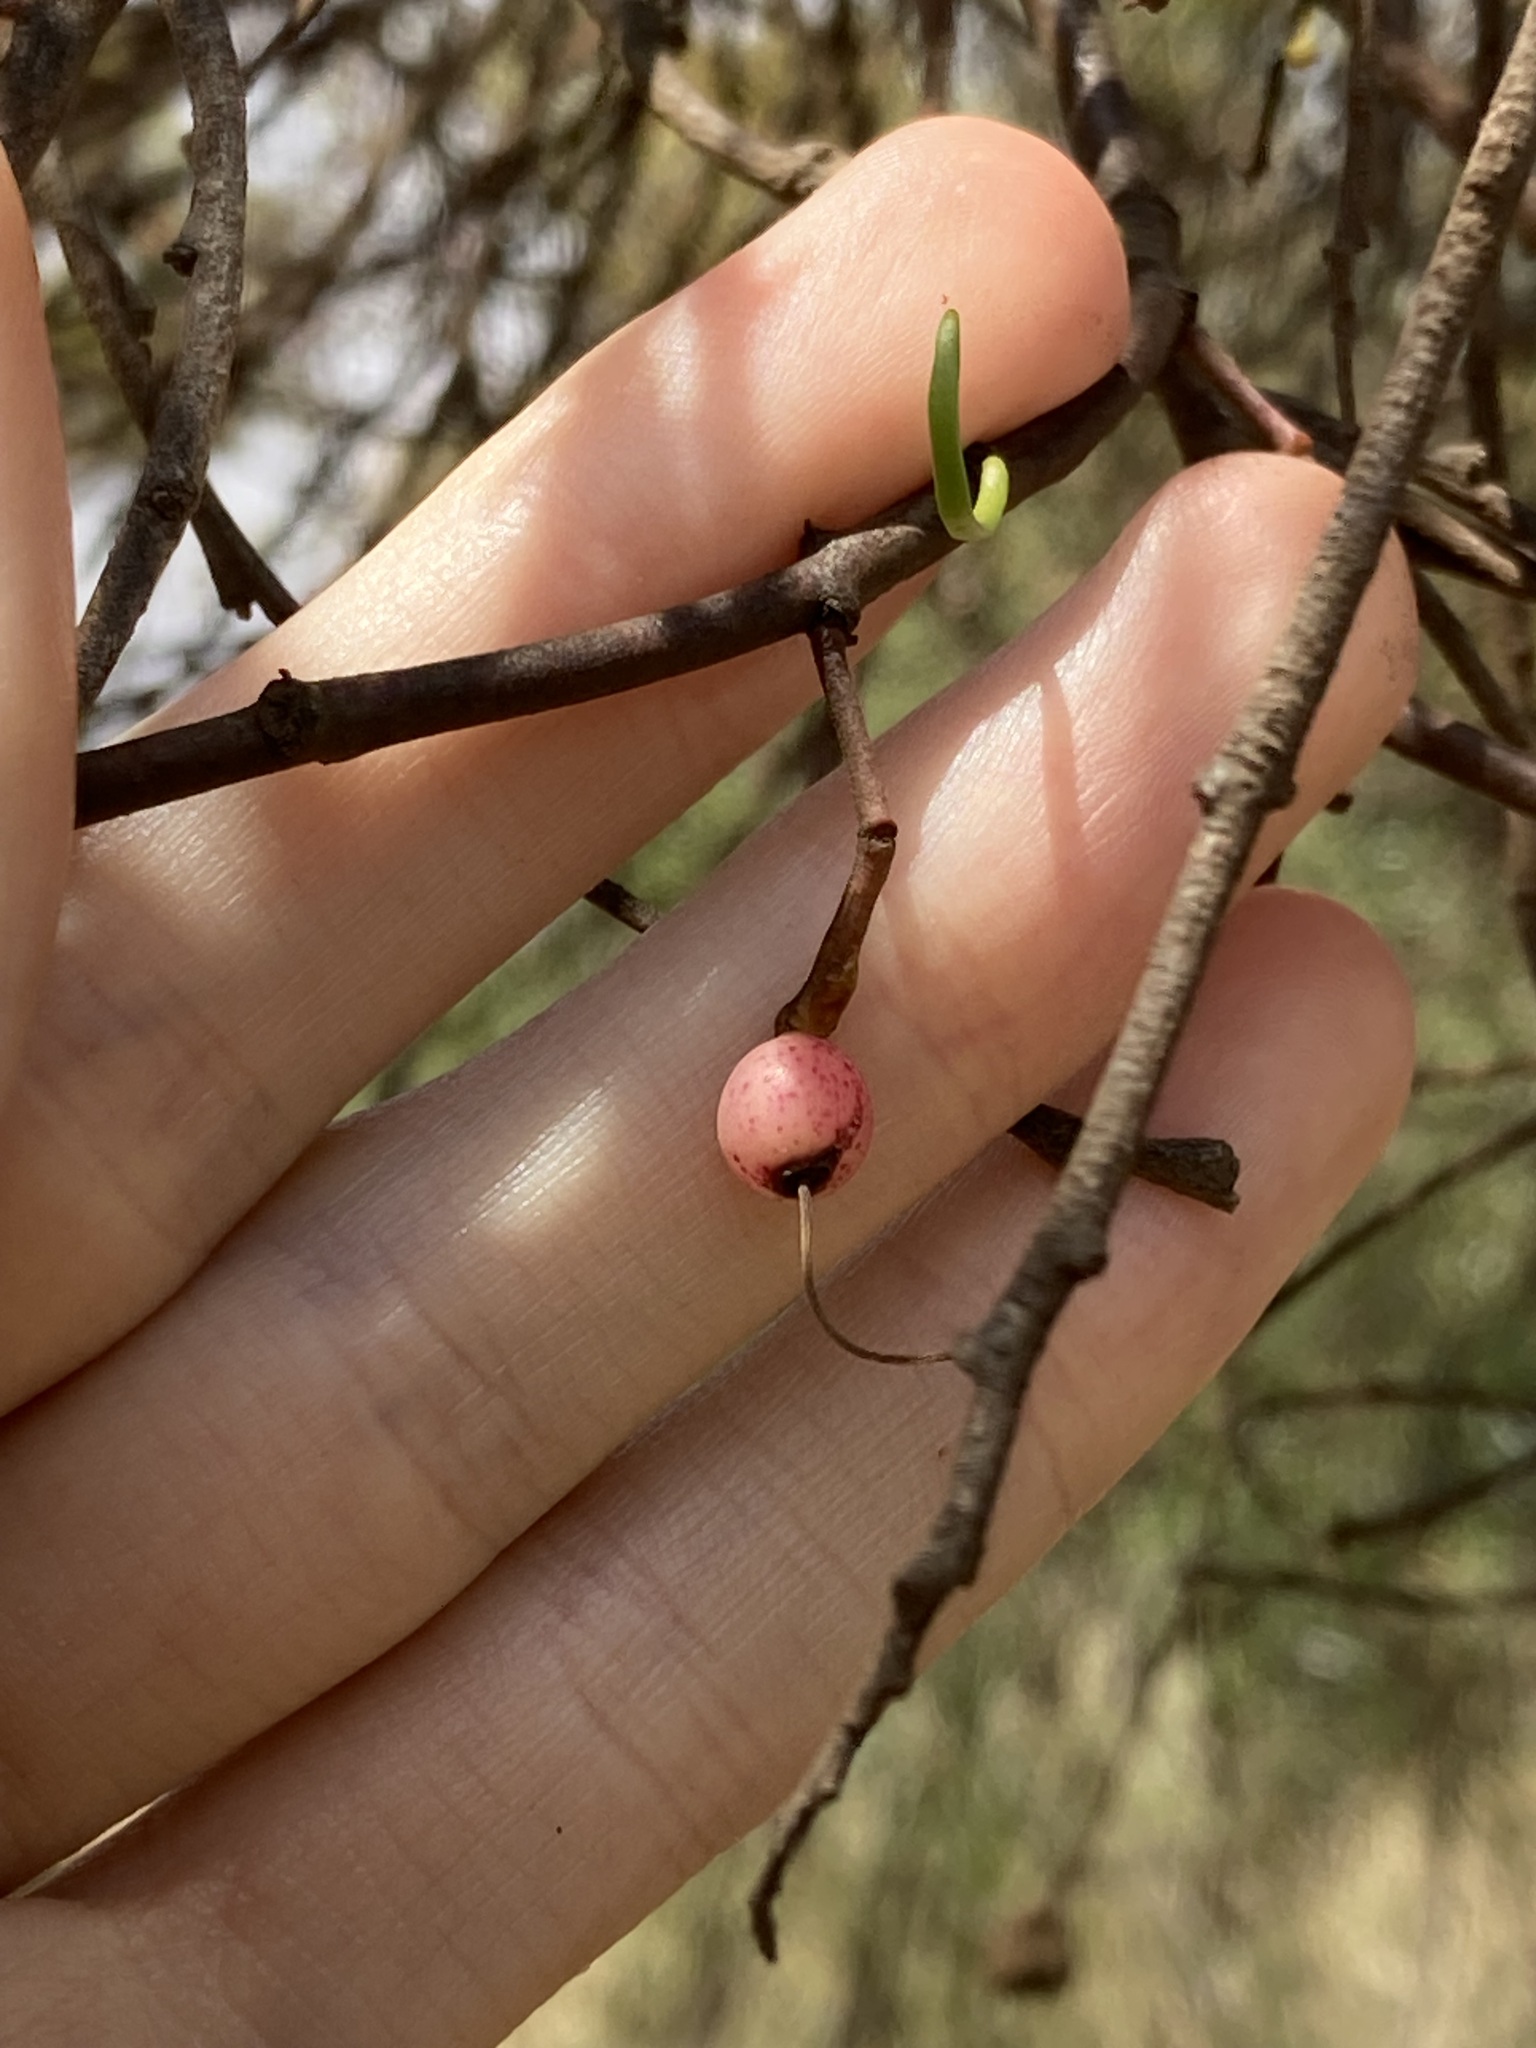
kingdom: Plantae
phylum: Tracheophyta
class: Magnoliopsida
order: Santalales
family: Loranthaceae
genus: Amyema
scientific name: Amyema preissii
